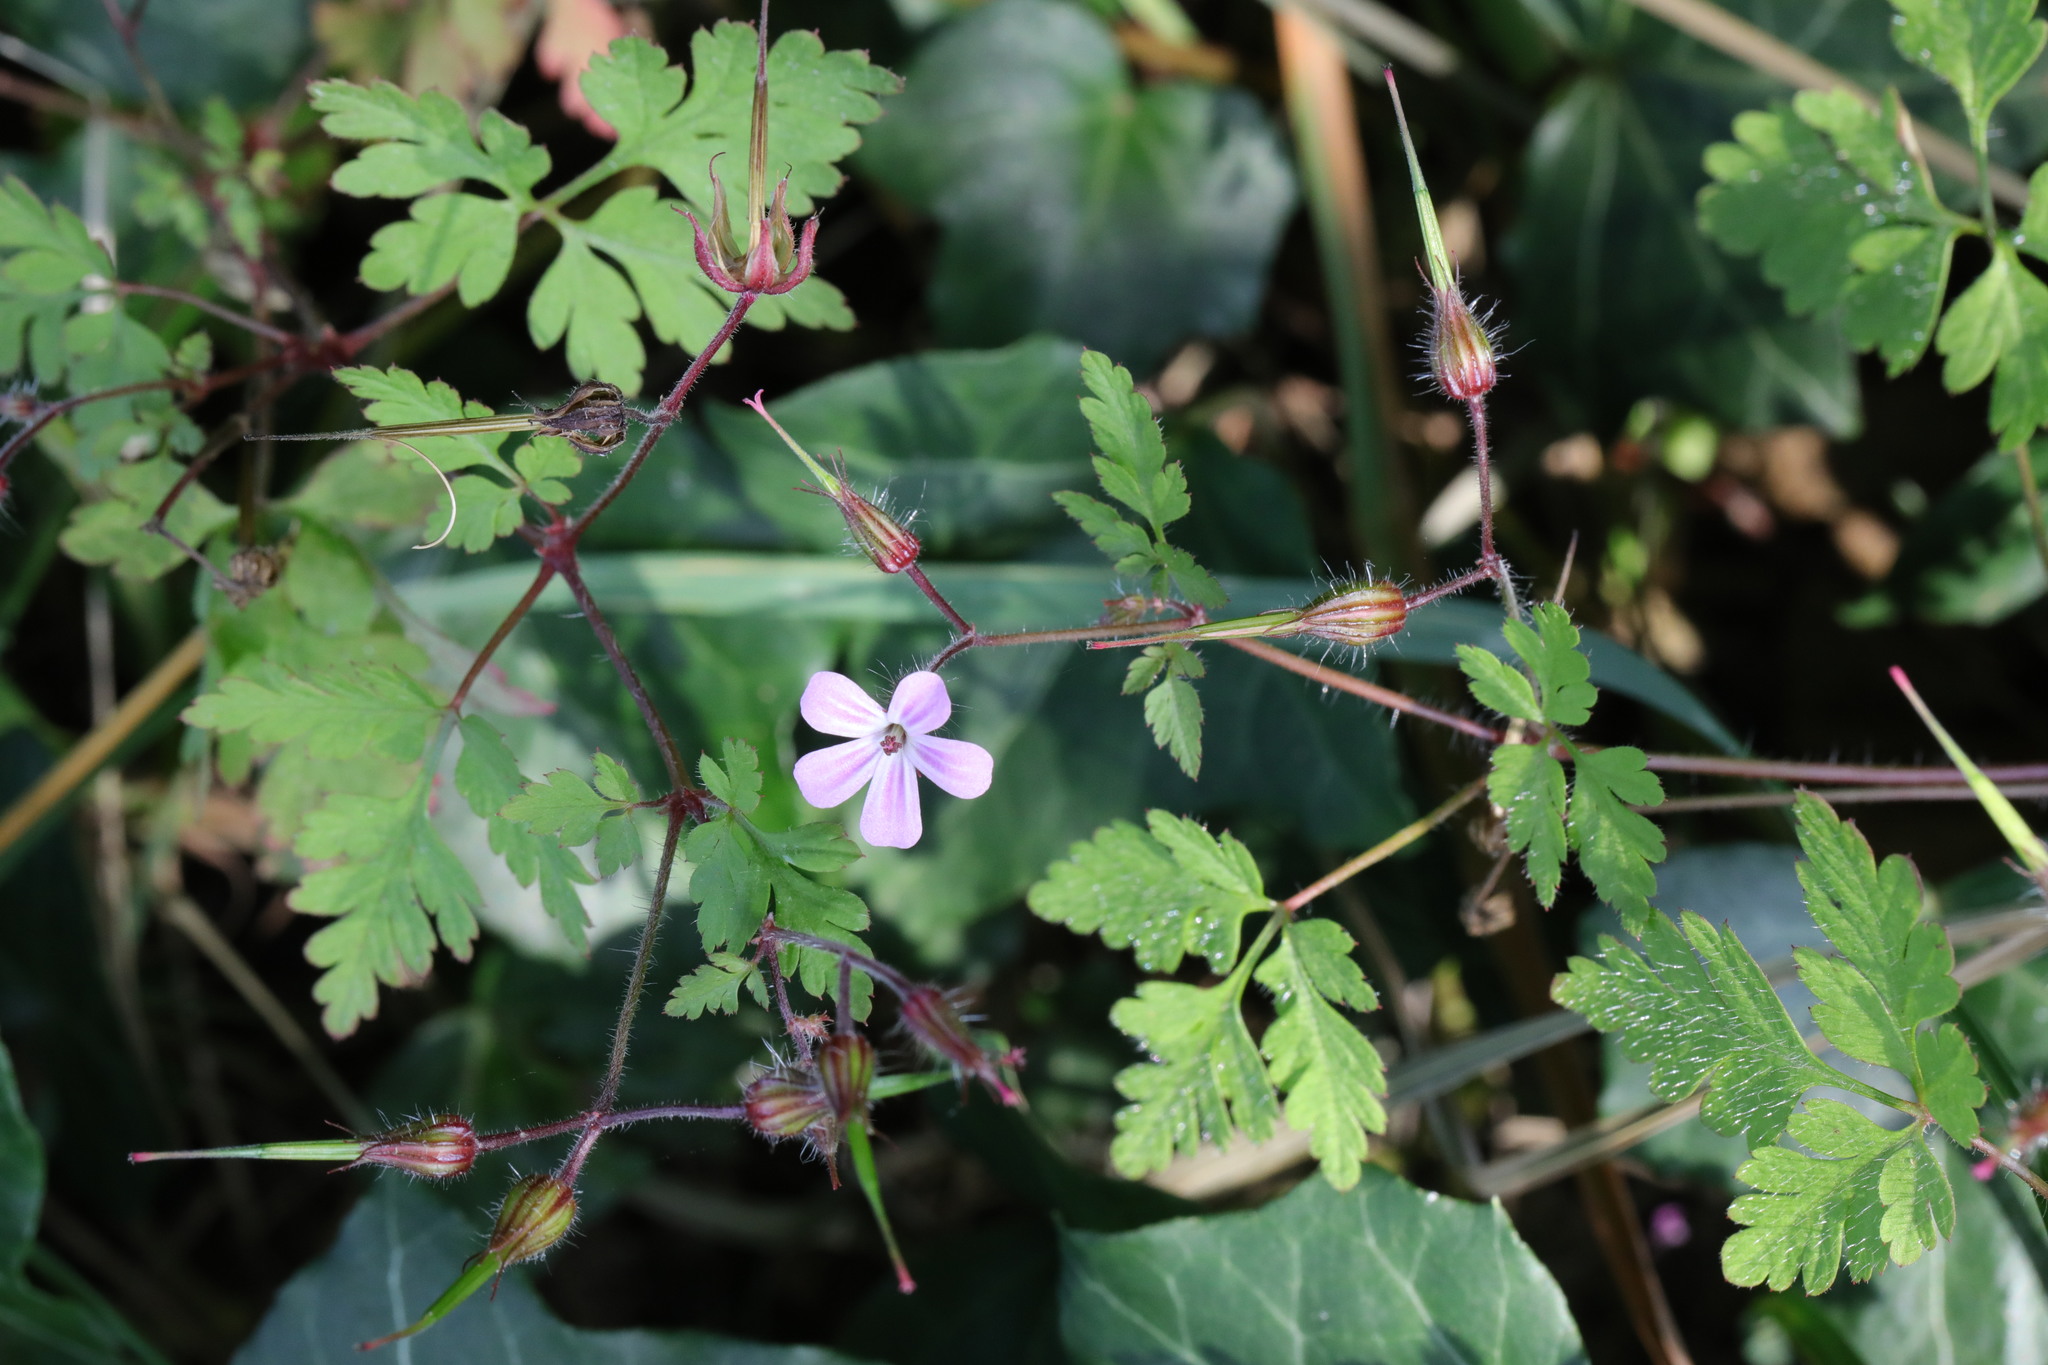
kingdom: Plantae
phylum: Tracheophyta
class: Magnoliopsida
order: Geraniales
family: Geraniaceae
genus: Geranium
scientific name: Geranium robertianum
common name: Herb-robert
